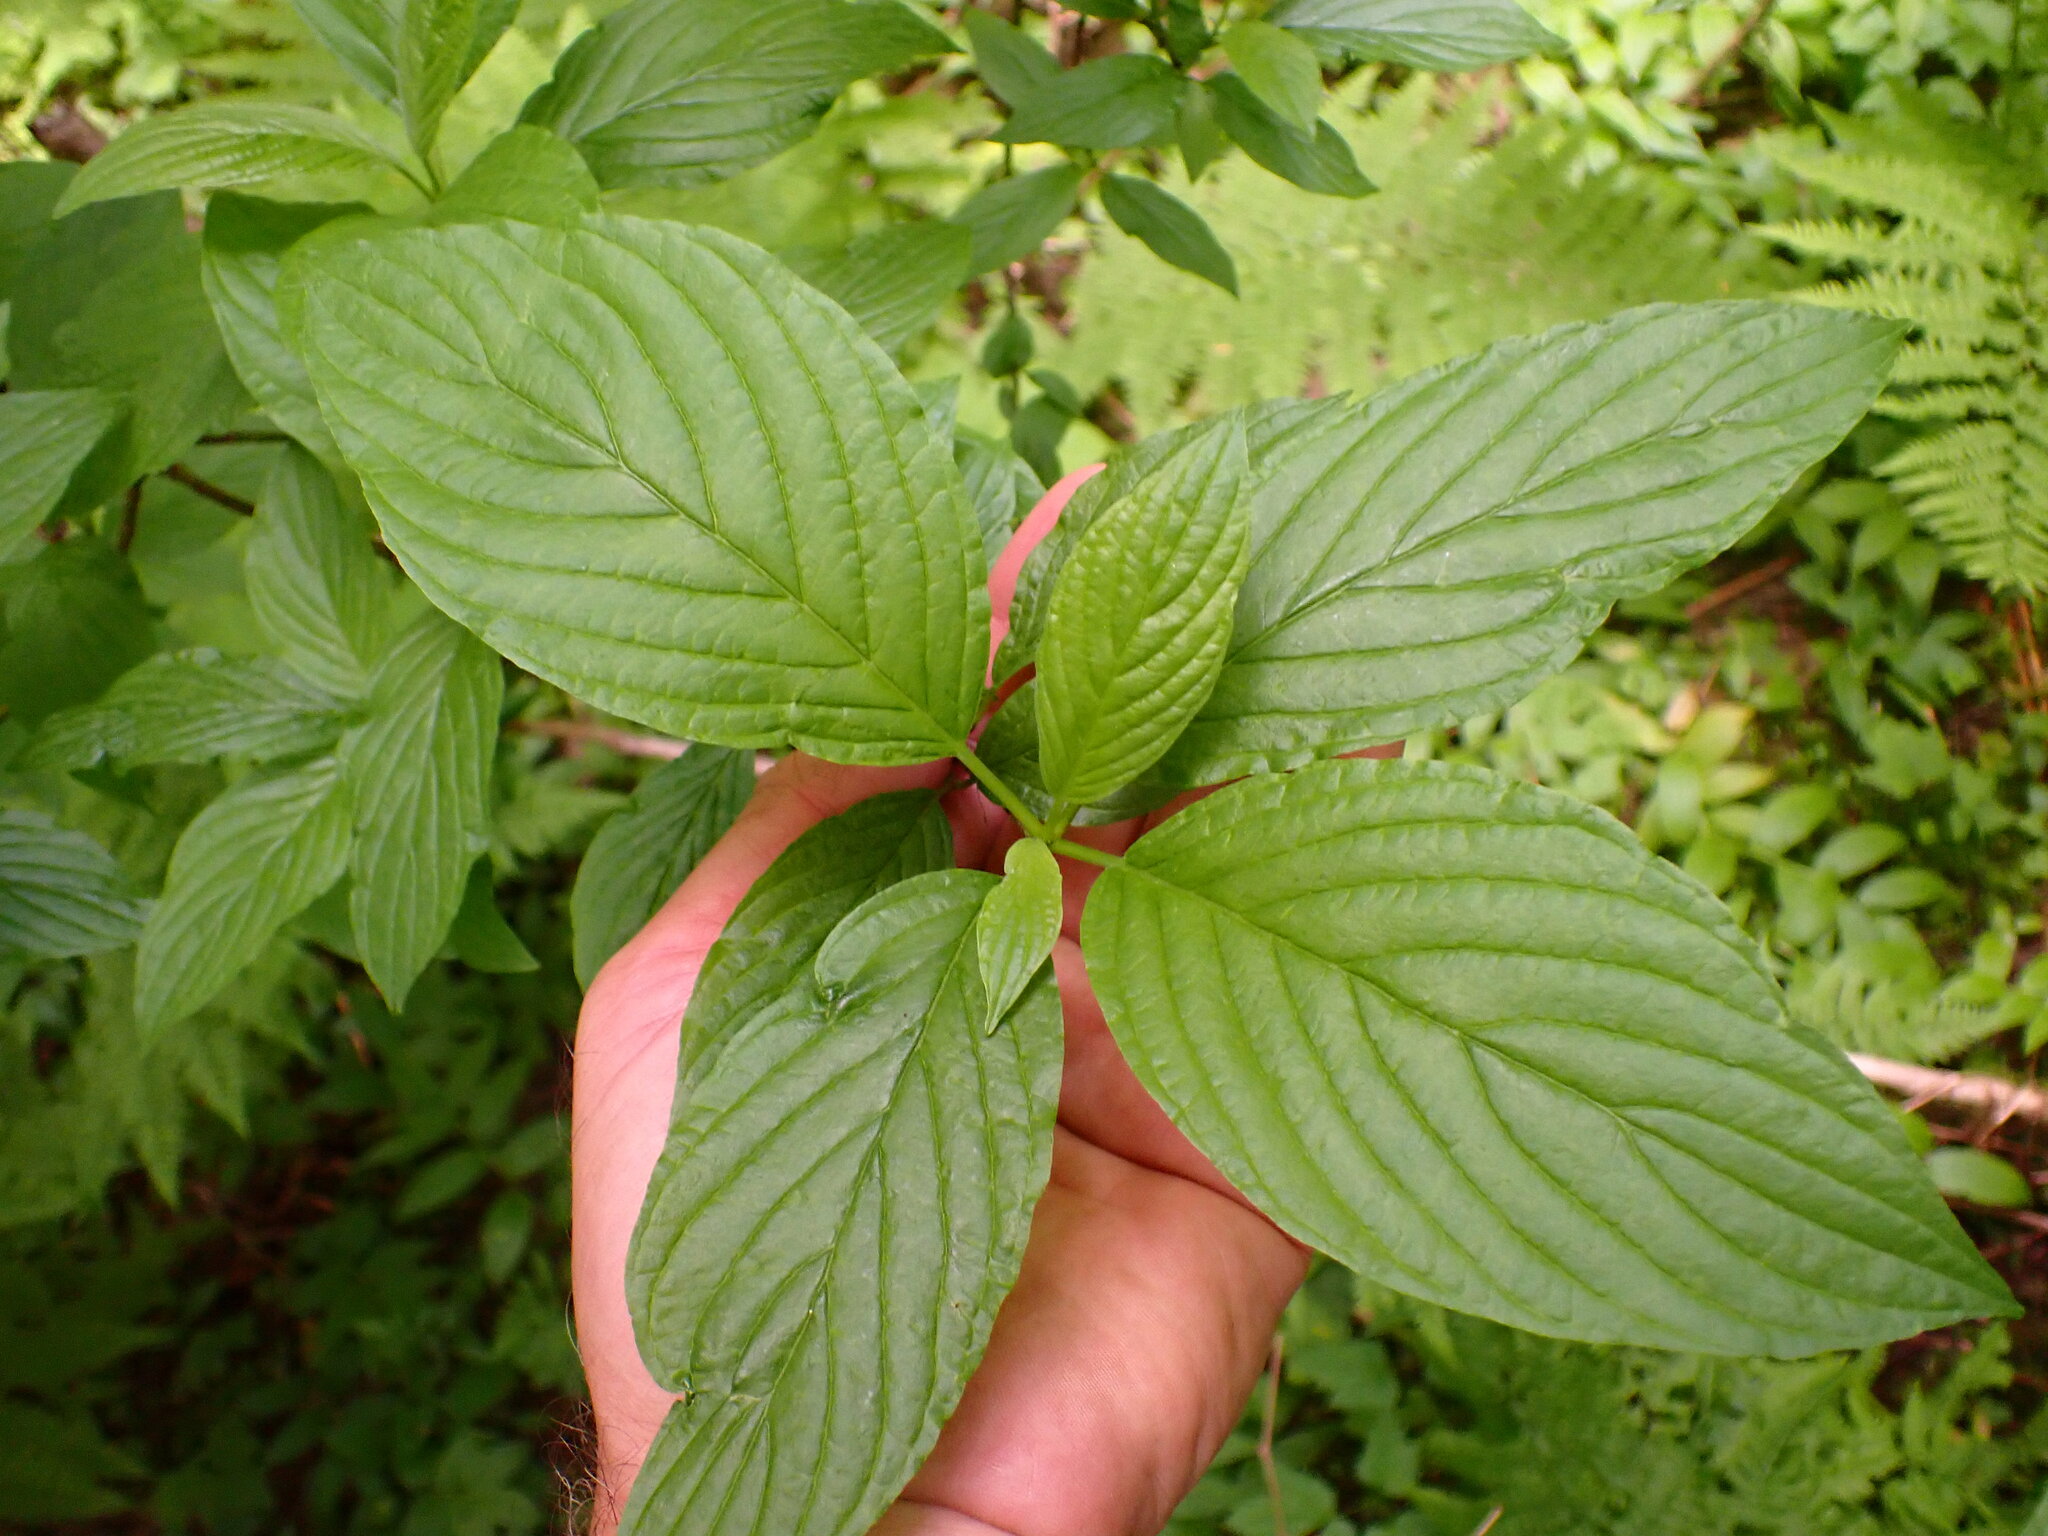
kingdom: Plantae
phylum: Tracheophyta
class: Magnoliopsida
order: Cornales
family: Cornaceae
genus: Cornus
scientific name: Cornus sericea
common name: Red-osier dogwood
